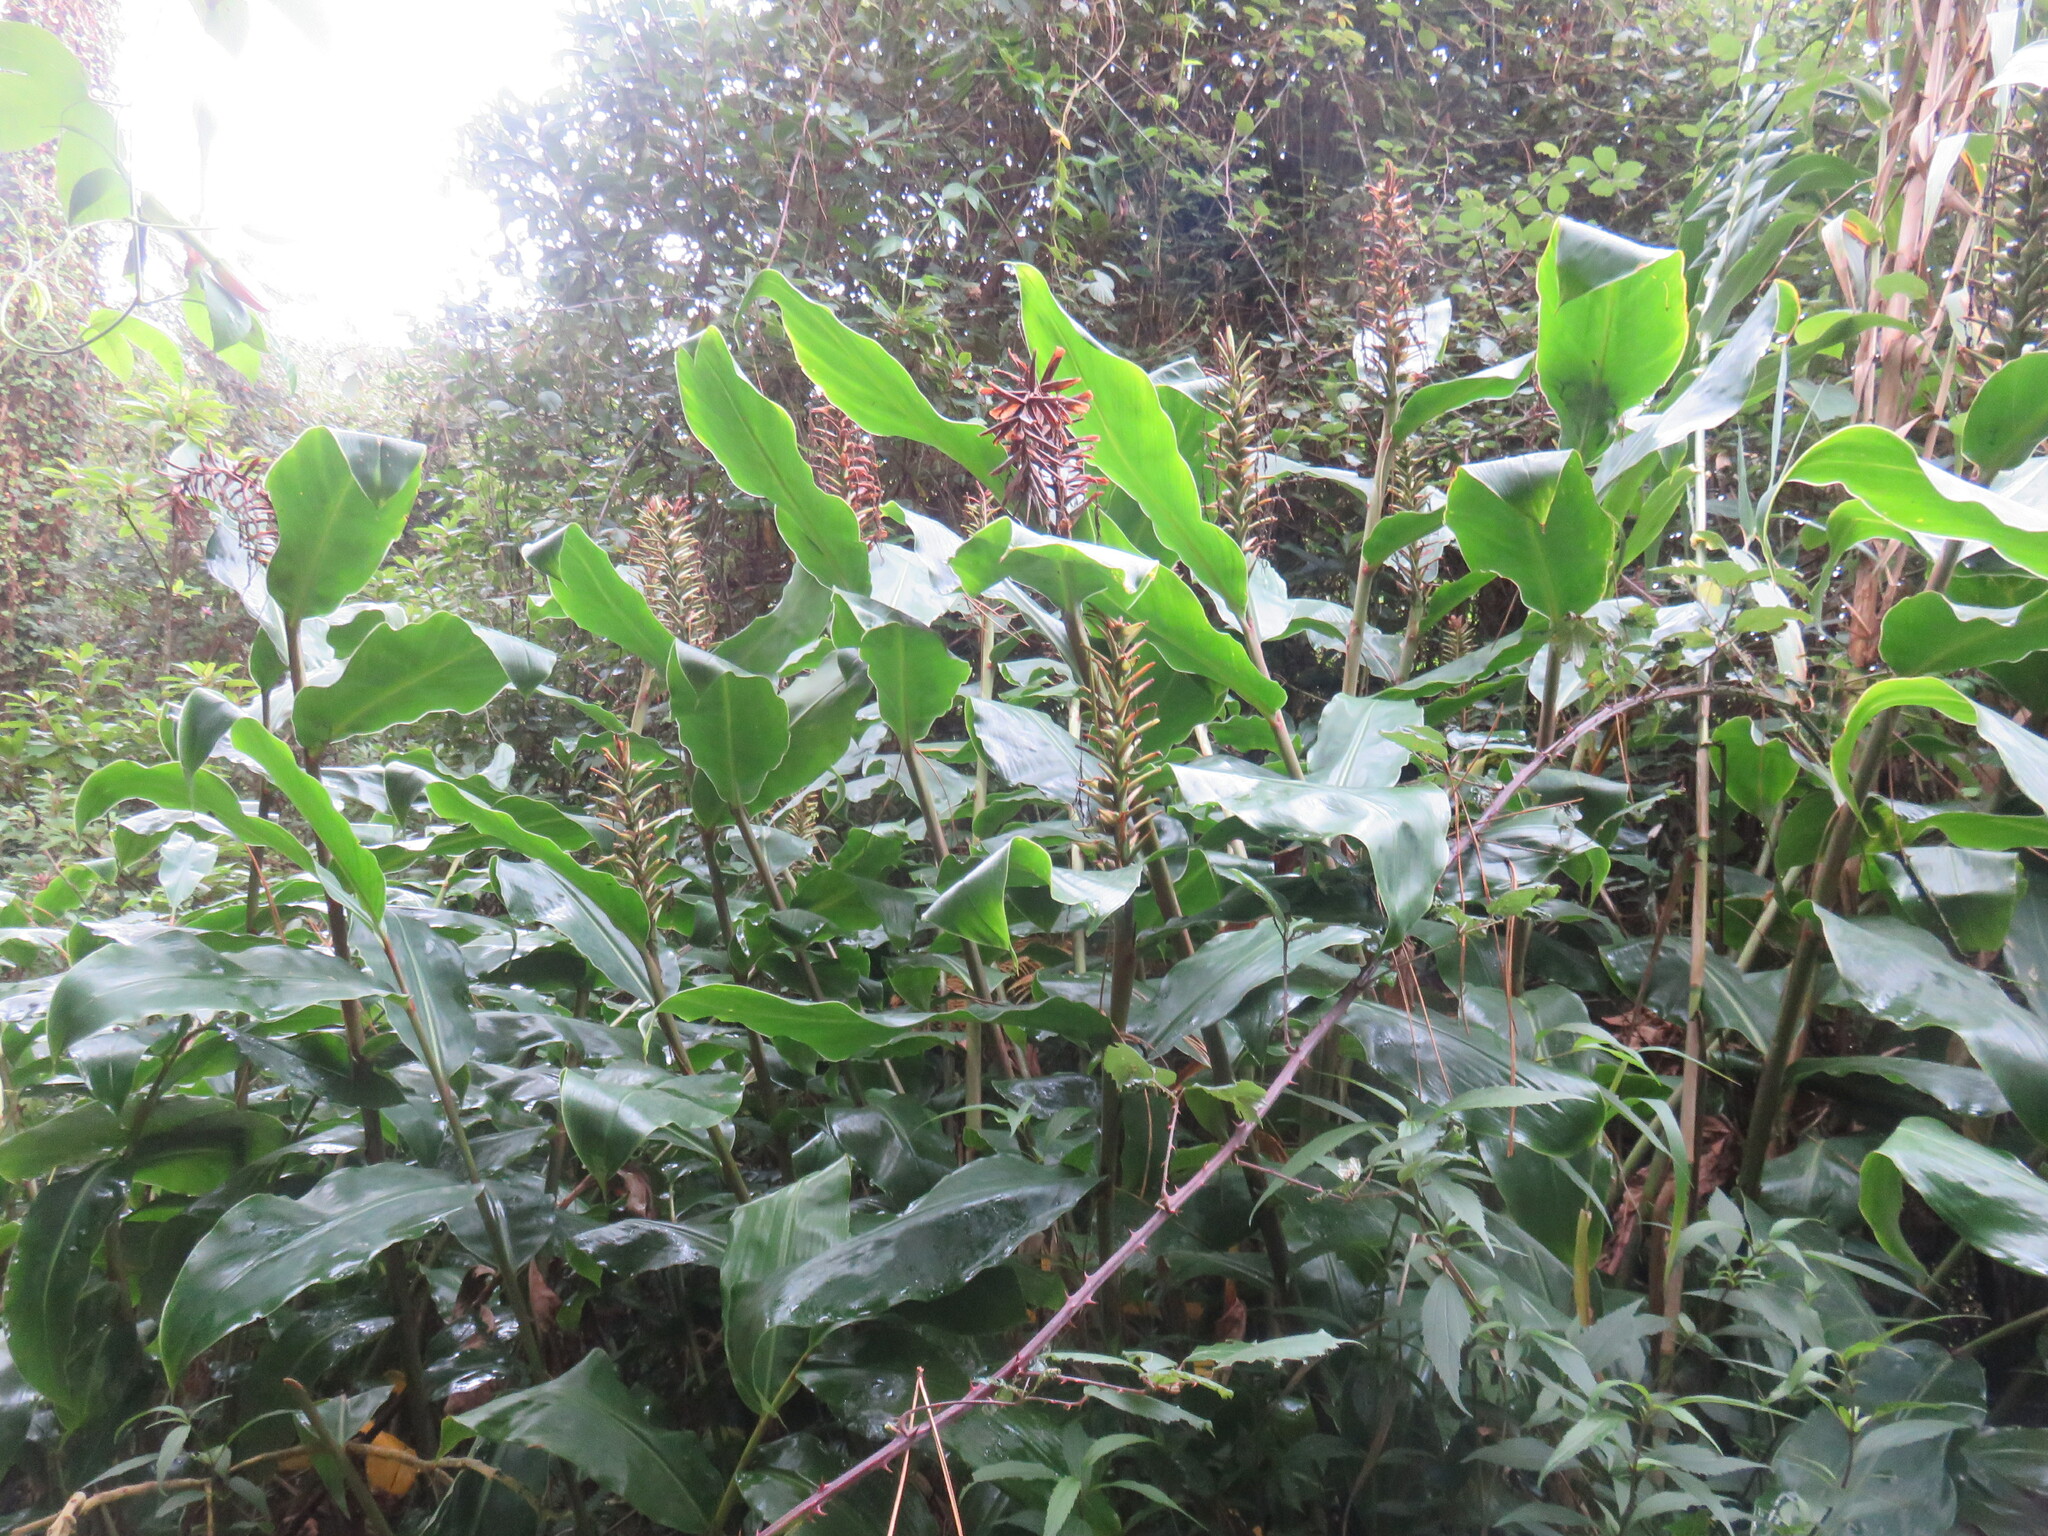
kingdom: Plantae
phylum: Tracheophyta
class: Liliopsida
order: Zingiberales
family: Zingiberaceae
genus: Hedychium
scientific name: Hedychium gardnerianum
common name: Himalayan ginger
